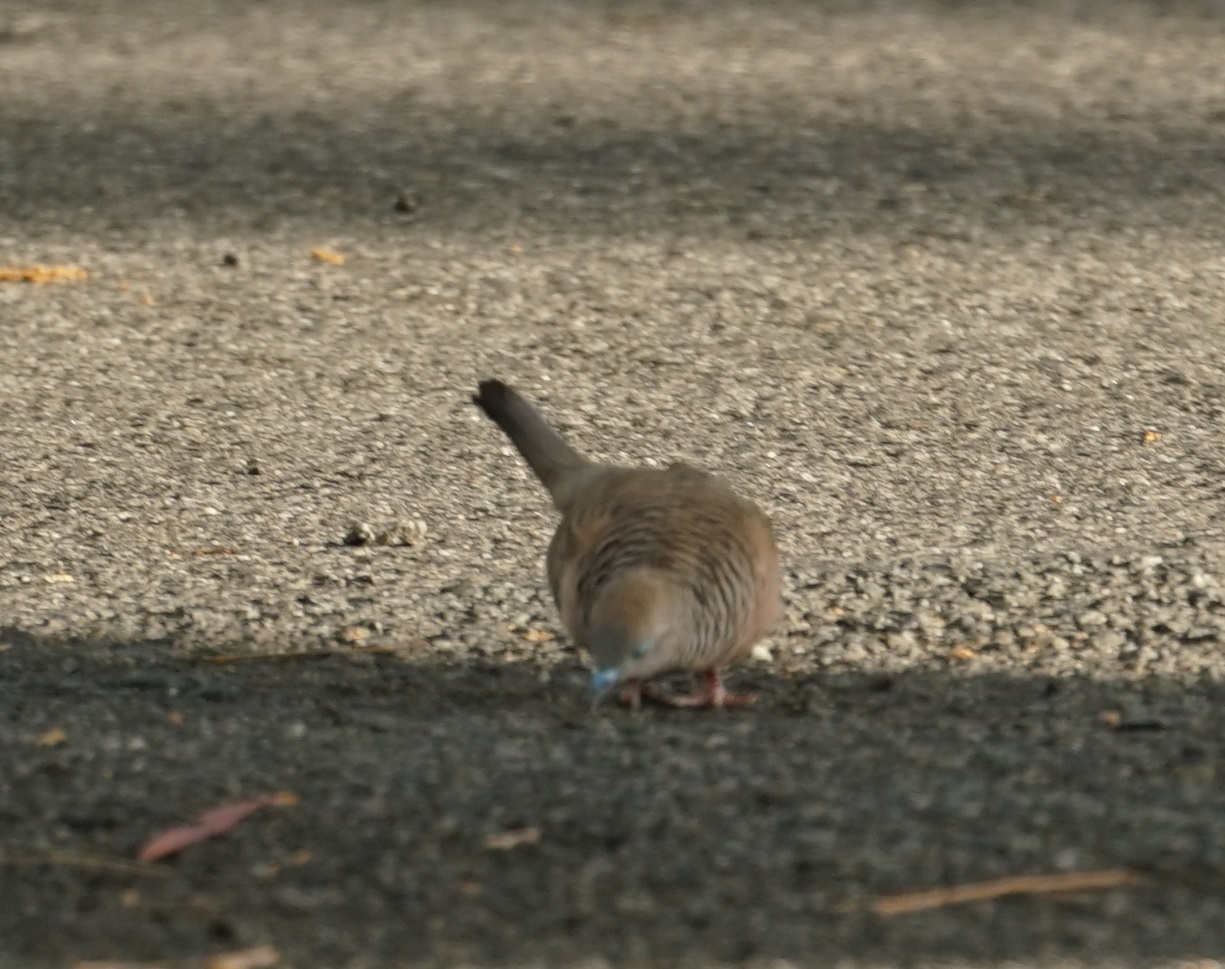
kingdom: Animalia
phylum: Chordata
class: Aves
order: Columbiformes
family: Columbidae
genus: Geopelia
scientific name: Geopelia placida
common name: Peaceful dove
